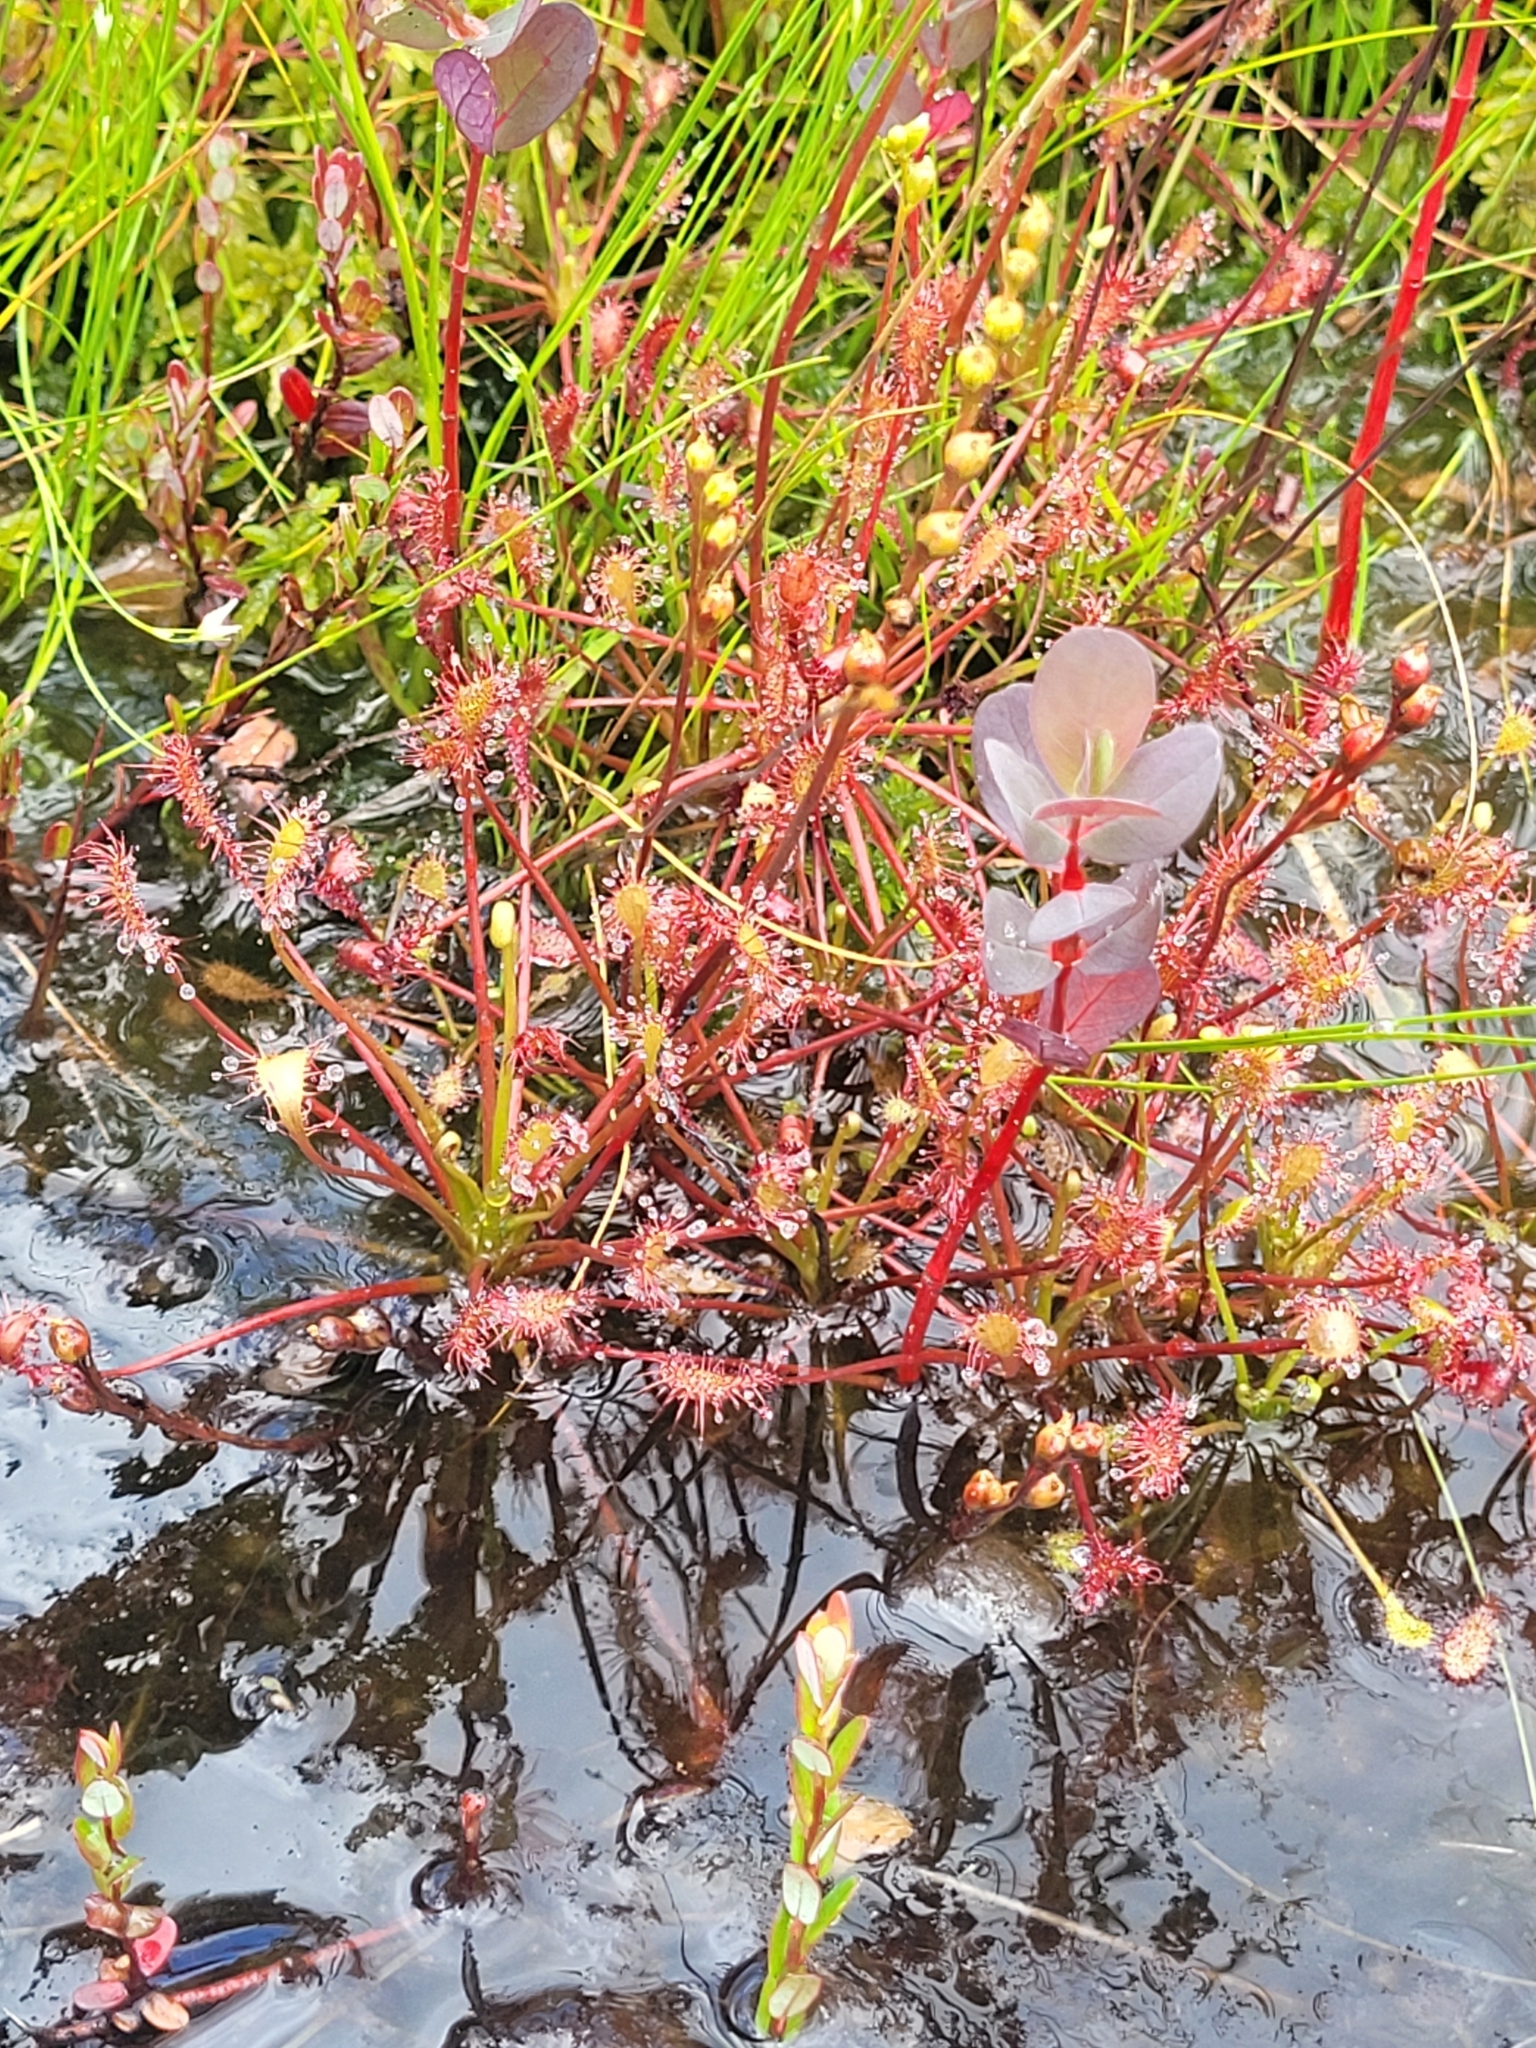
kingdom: Plantae
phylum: Tracheophyta
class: Magnoliopsida
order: Caryophyllales
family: Droseraceae
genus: Drosera
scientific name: Drosera intermedia
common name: Oblong-leaved sundew
